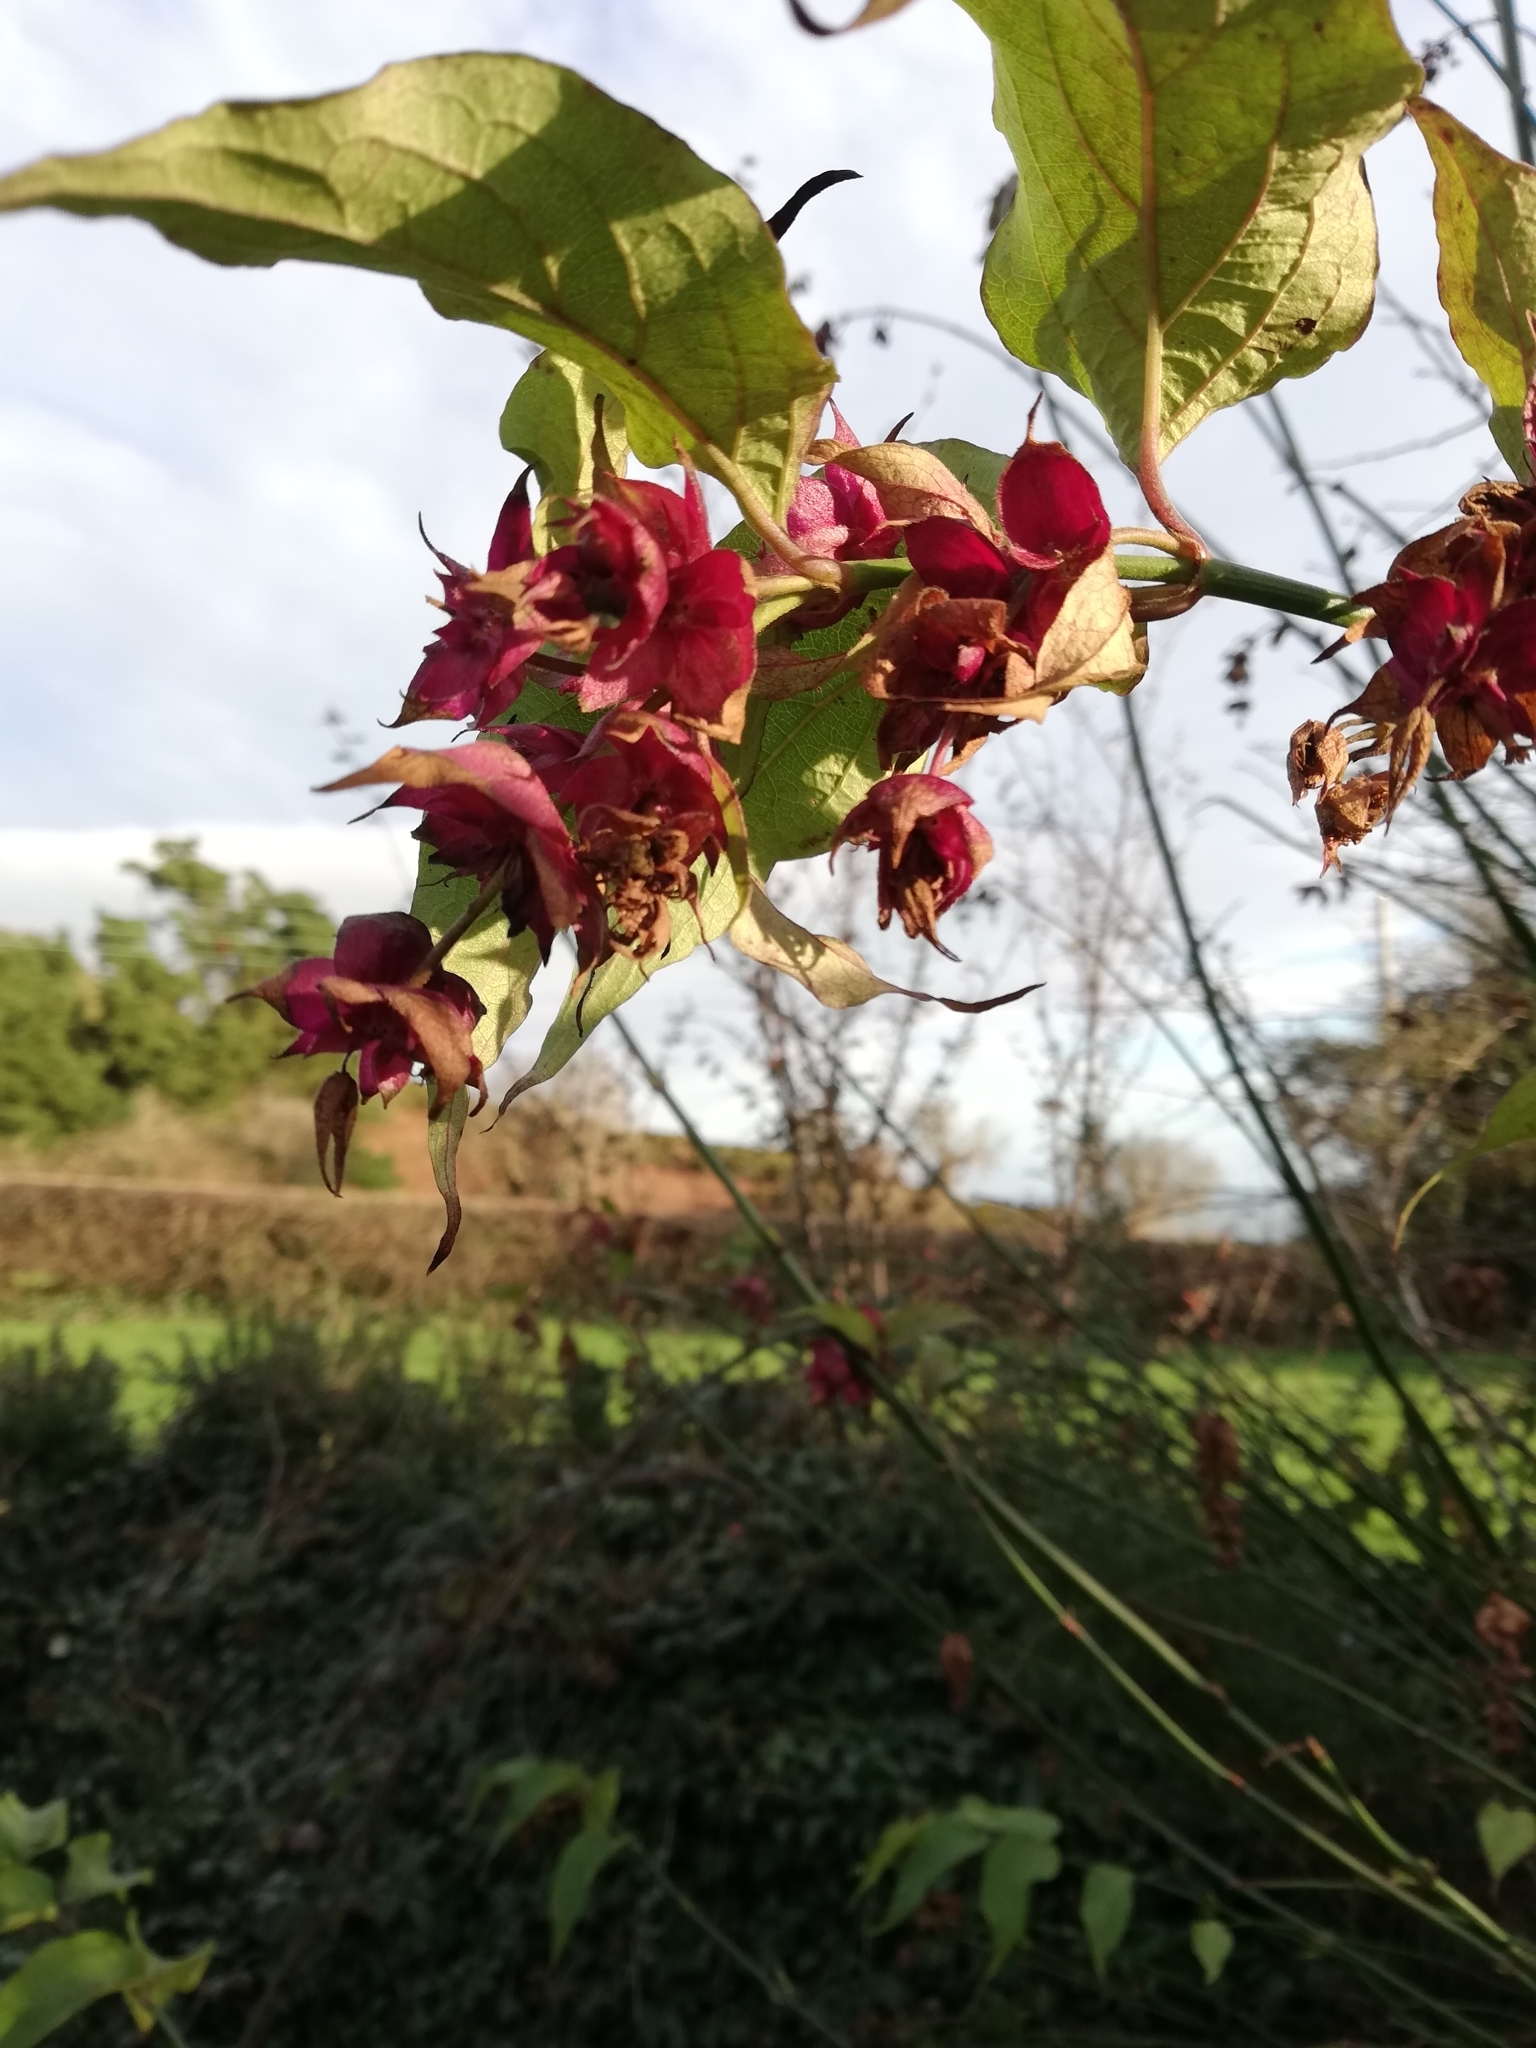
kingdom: Plantae
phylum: Tracheophyta
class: Magnoliopsida
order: Dipsacales
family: Caprifoliaceae
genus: Leycesteria
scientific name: Leycesteria formosa
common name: Himalayan honeysuckle
